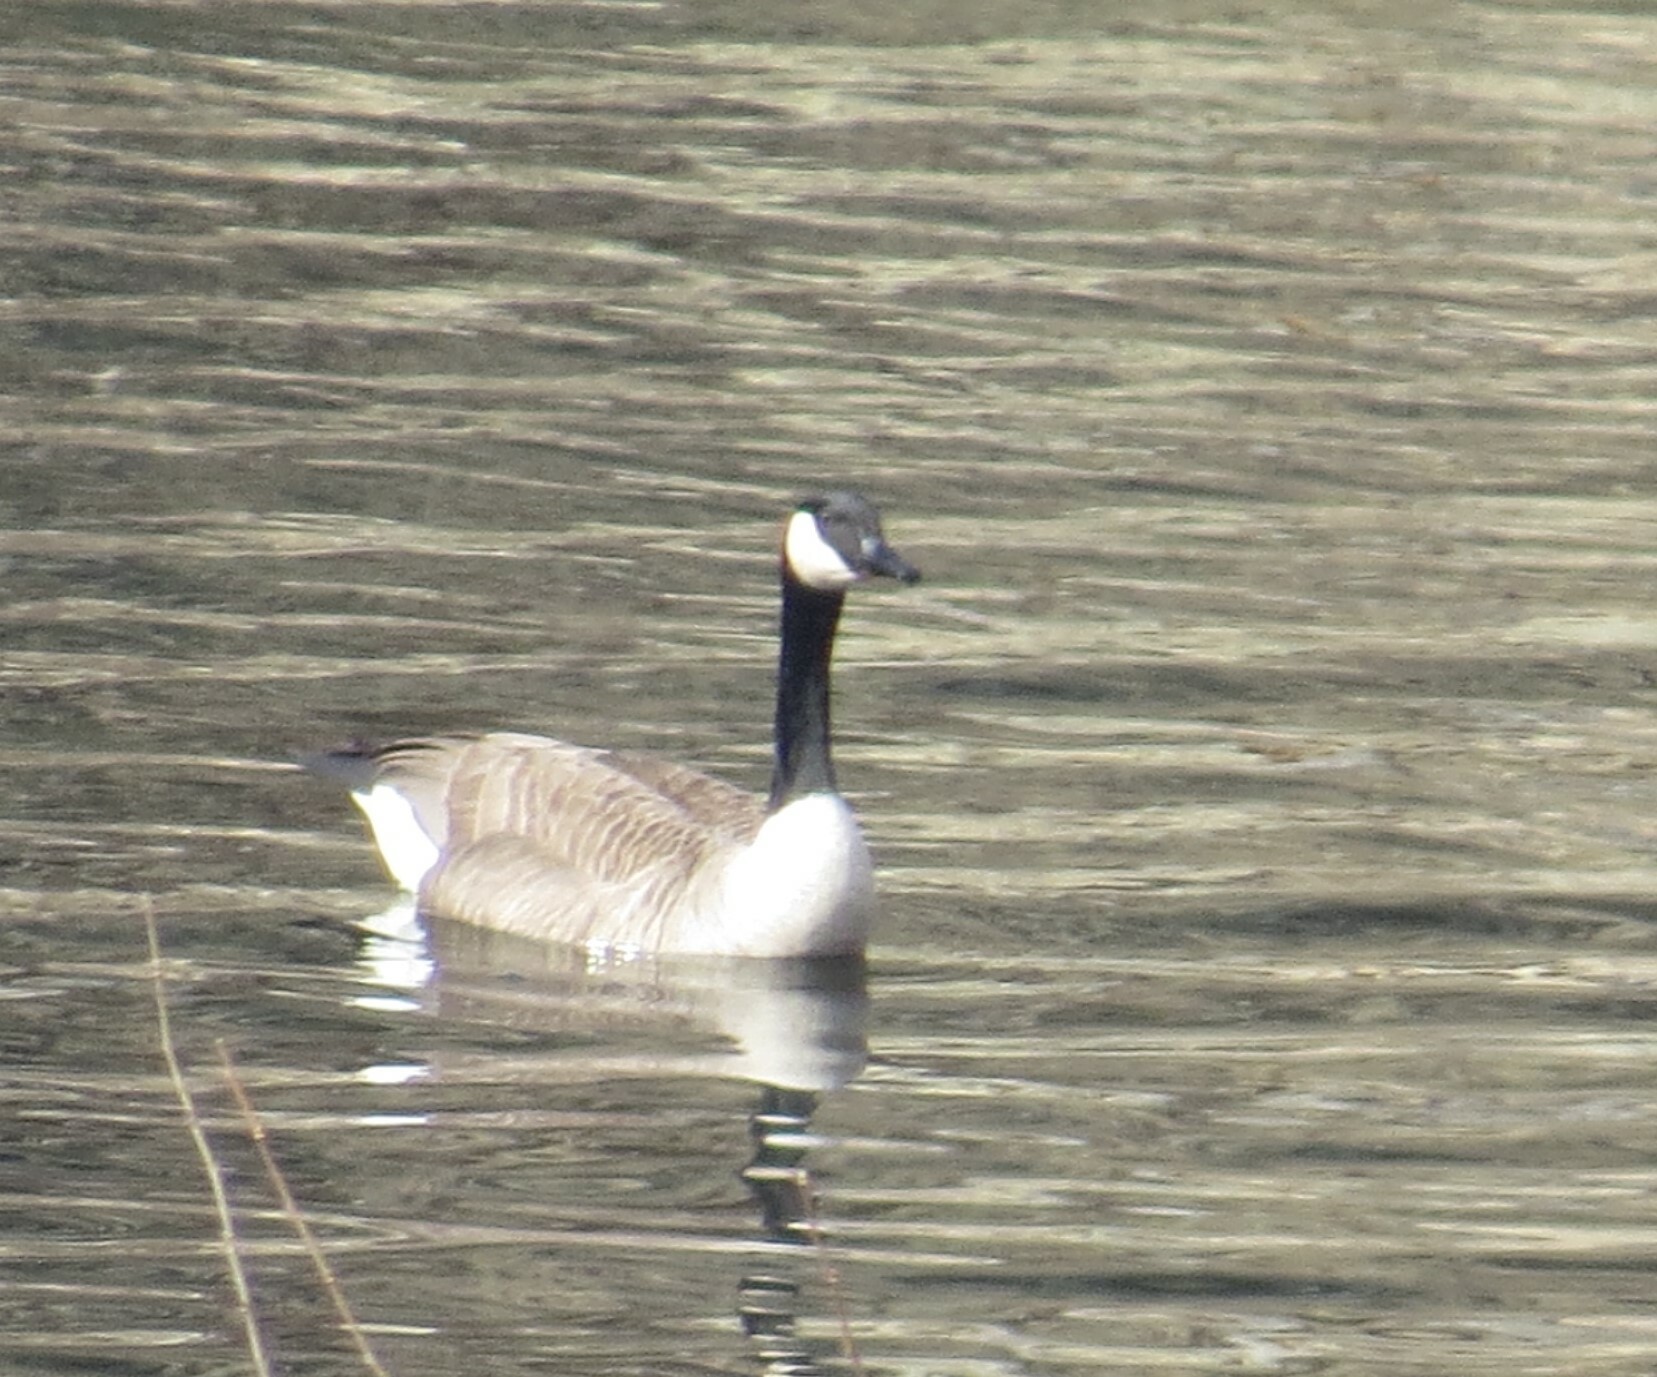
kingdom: Animalia
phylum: Chordata
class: Aves
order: Anseriformes
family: Anatidae
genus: Branta
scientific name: Branta canadensis
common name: Canada goose
